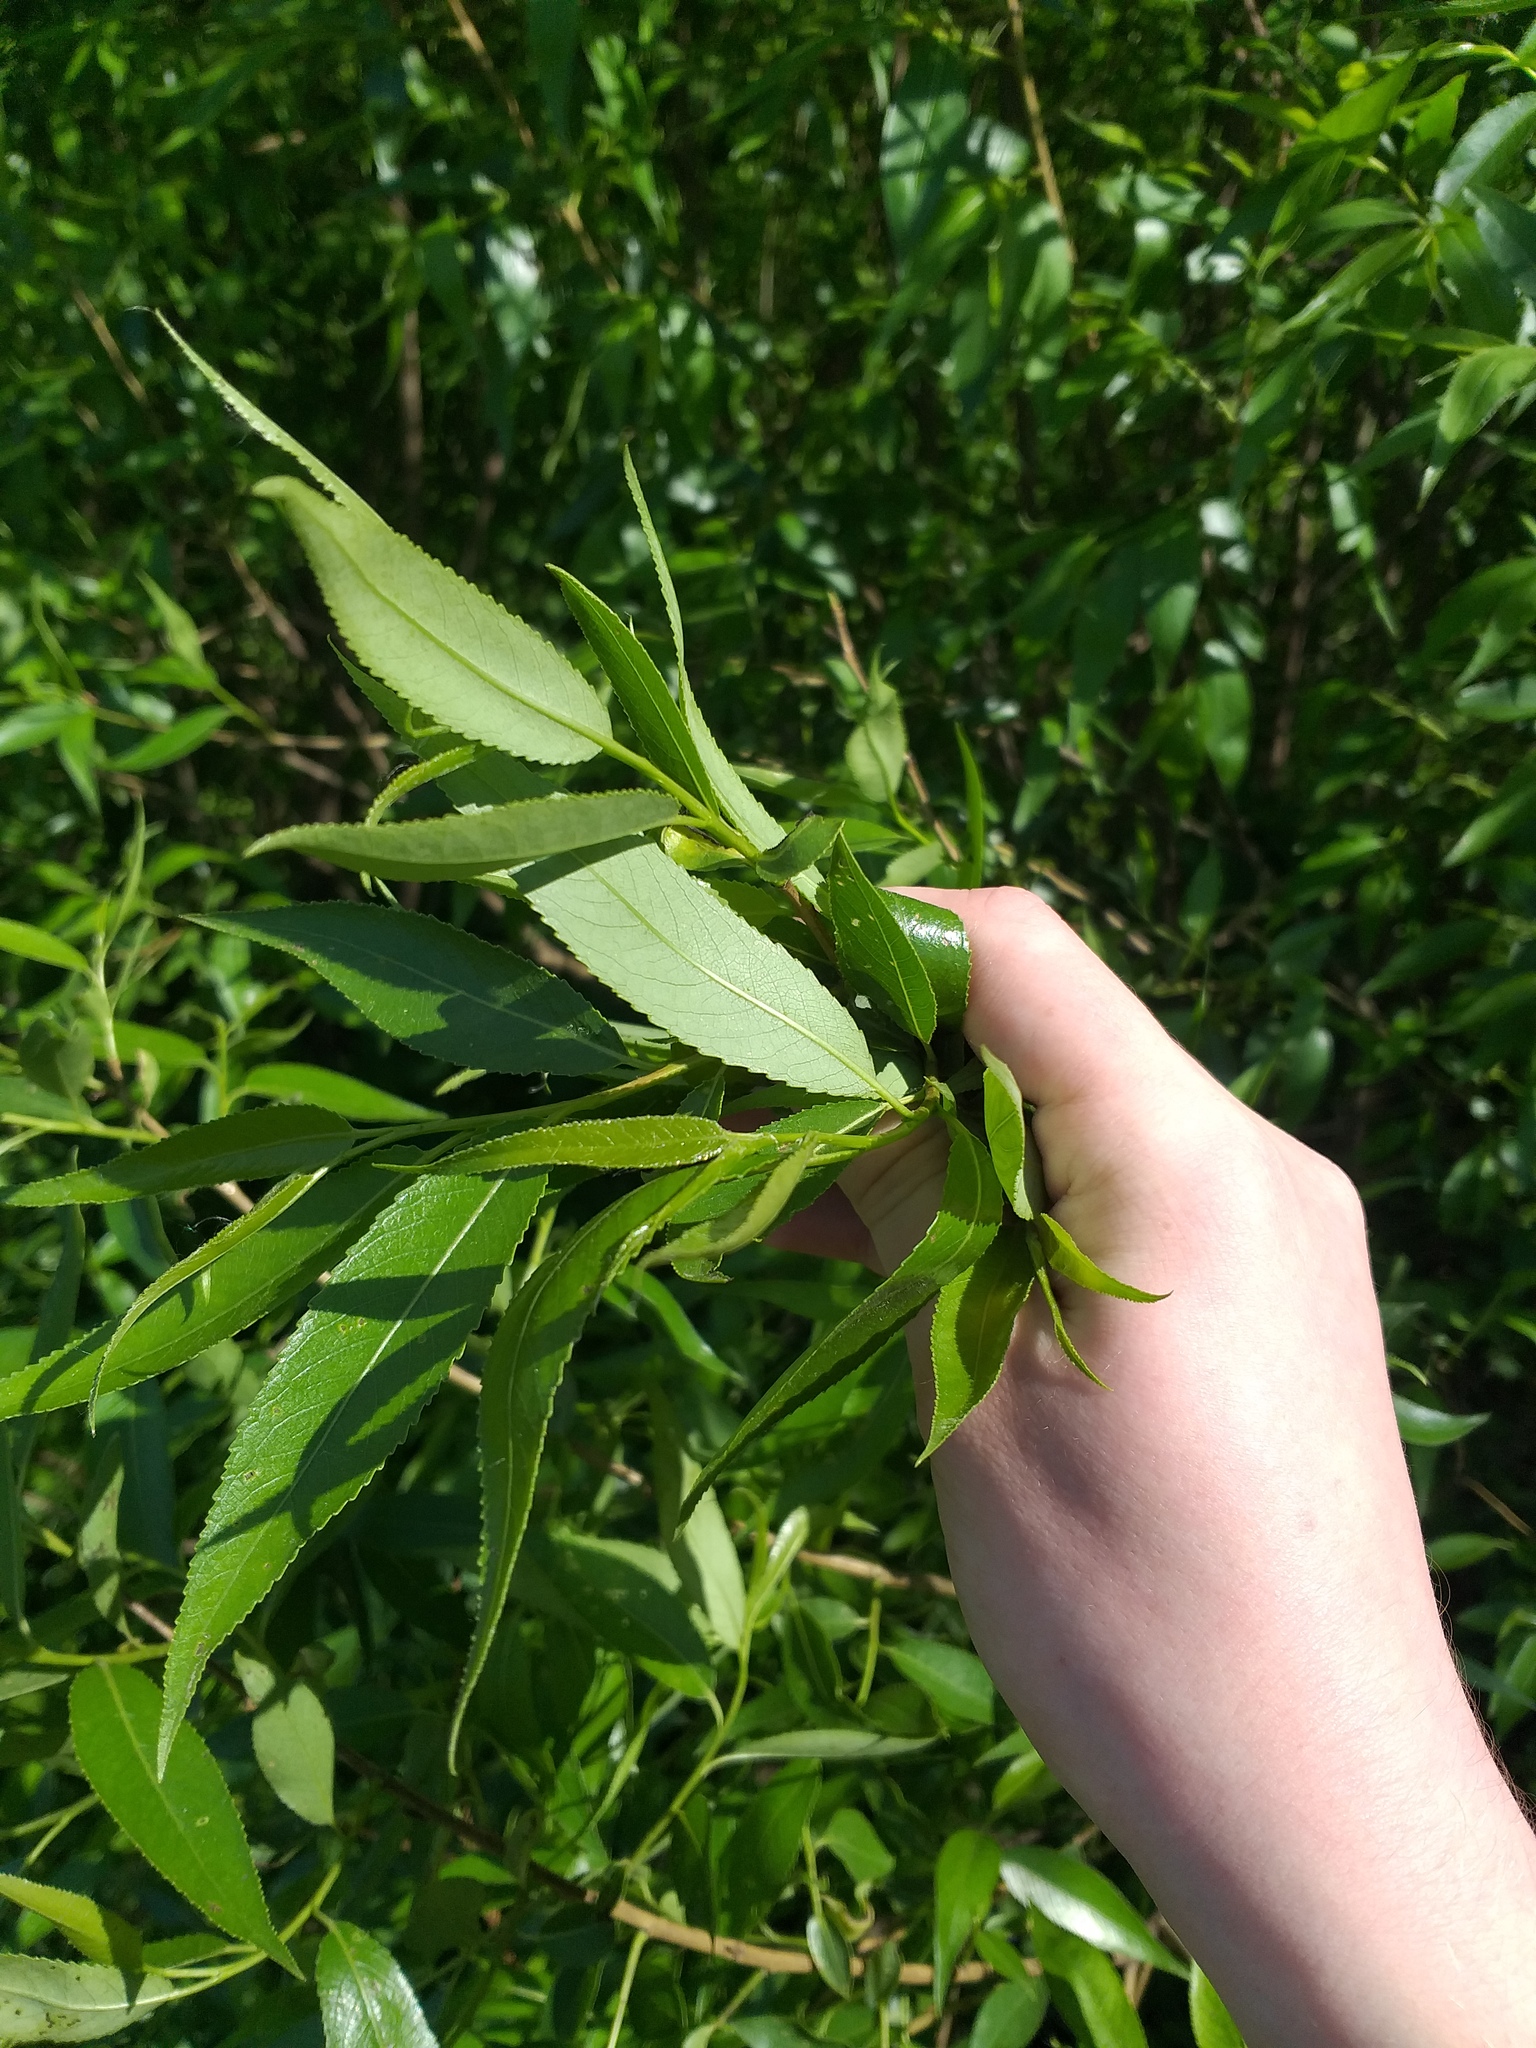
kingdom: Plantae
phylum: Tracheophyta
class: Magnoliopsida
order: Malpighiales
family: Salicaceae
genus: Salix
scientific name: Salix alba
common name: White willow
